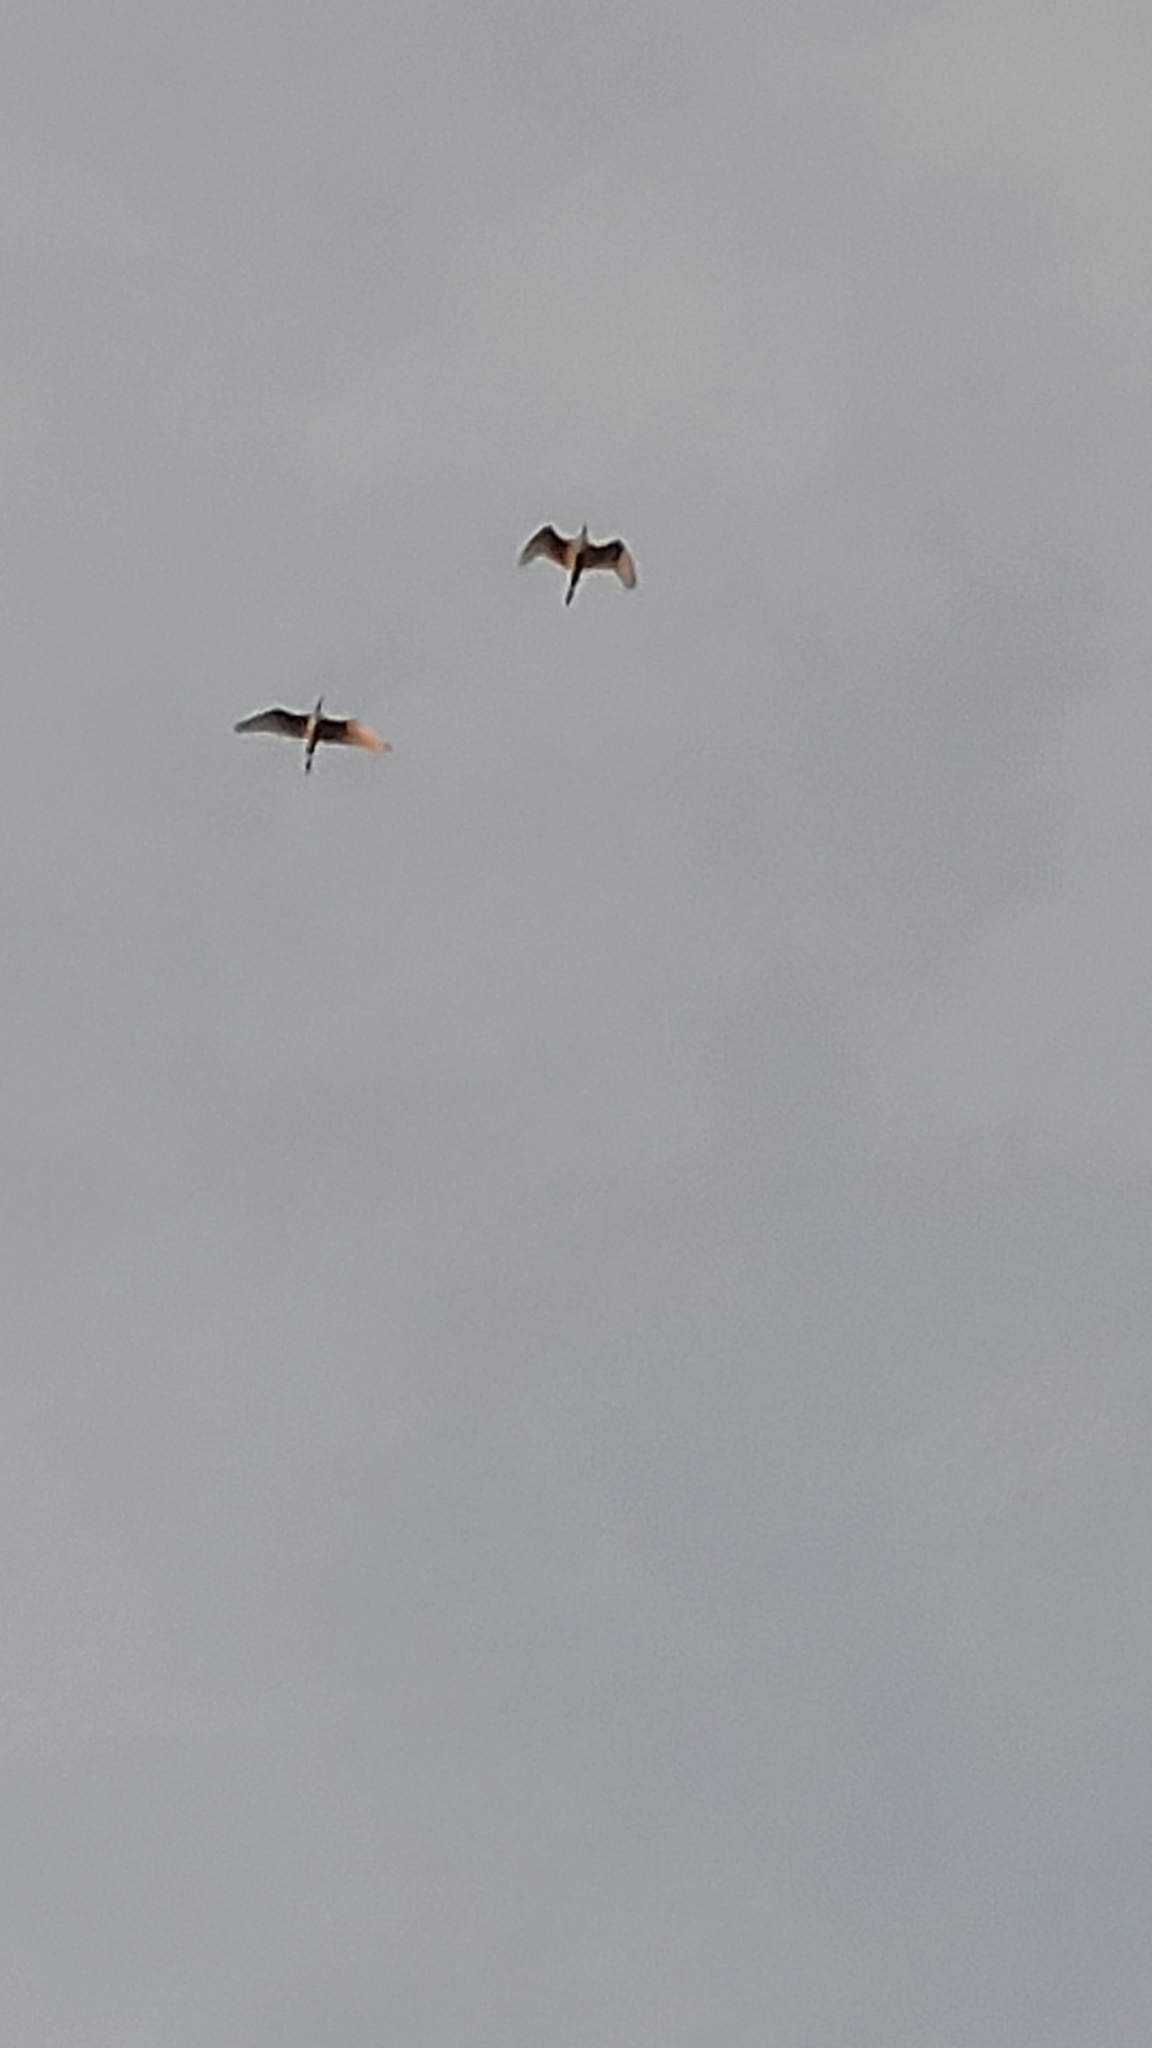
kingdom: Animalia
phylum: Chordata
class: Aves
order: Pelecaniformes
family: Ardeidae
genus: Ardea
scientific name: Ardea herodias
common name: Great blue heron
